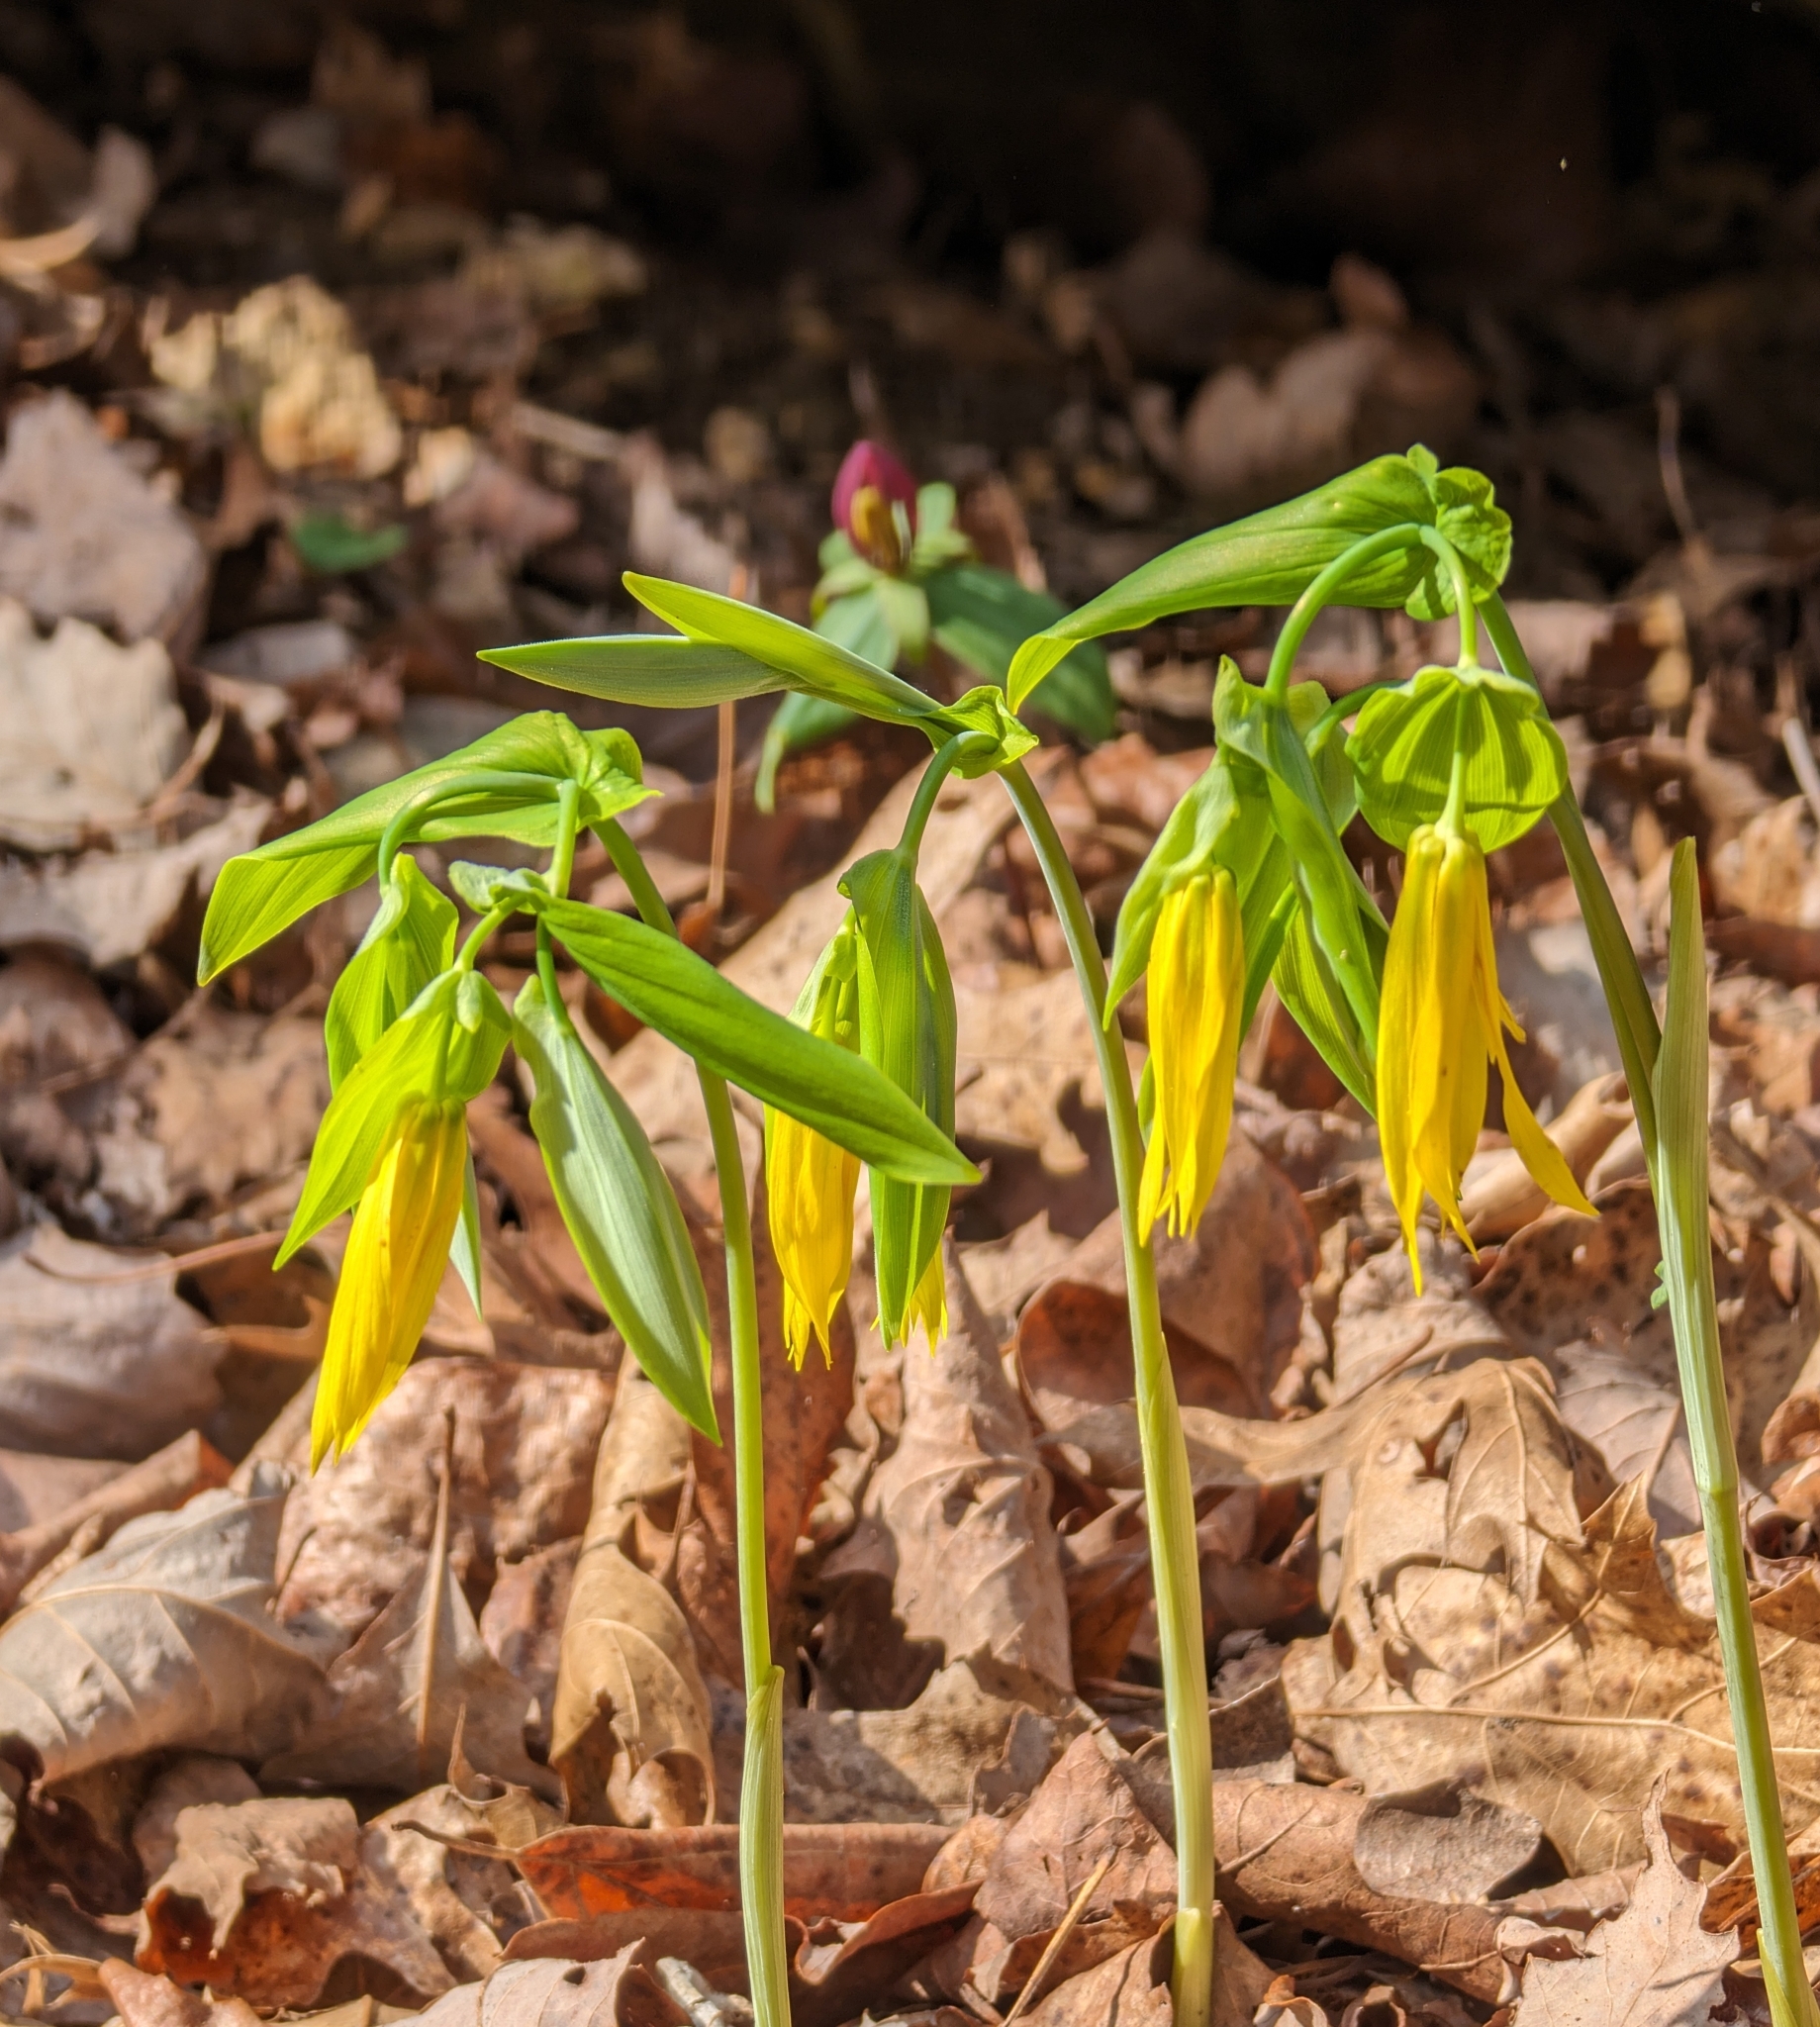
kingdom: Plantae
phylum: Tracheophyta
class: Liliopsida
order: Liliales
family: Colchicaceae
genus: Uvularia
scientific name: Uvularia grandiflora
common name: Bellwort
